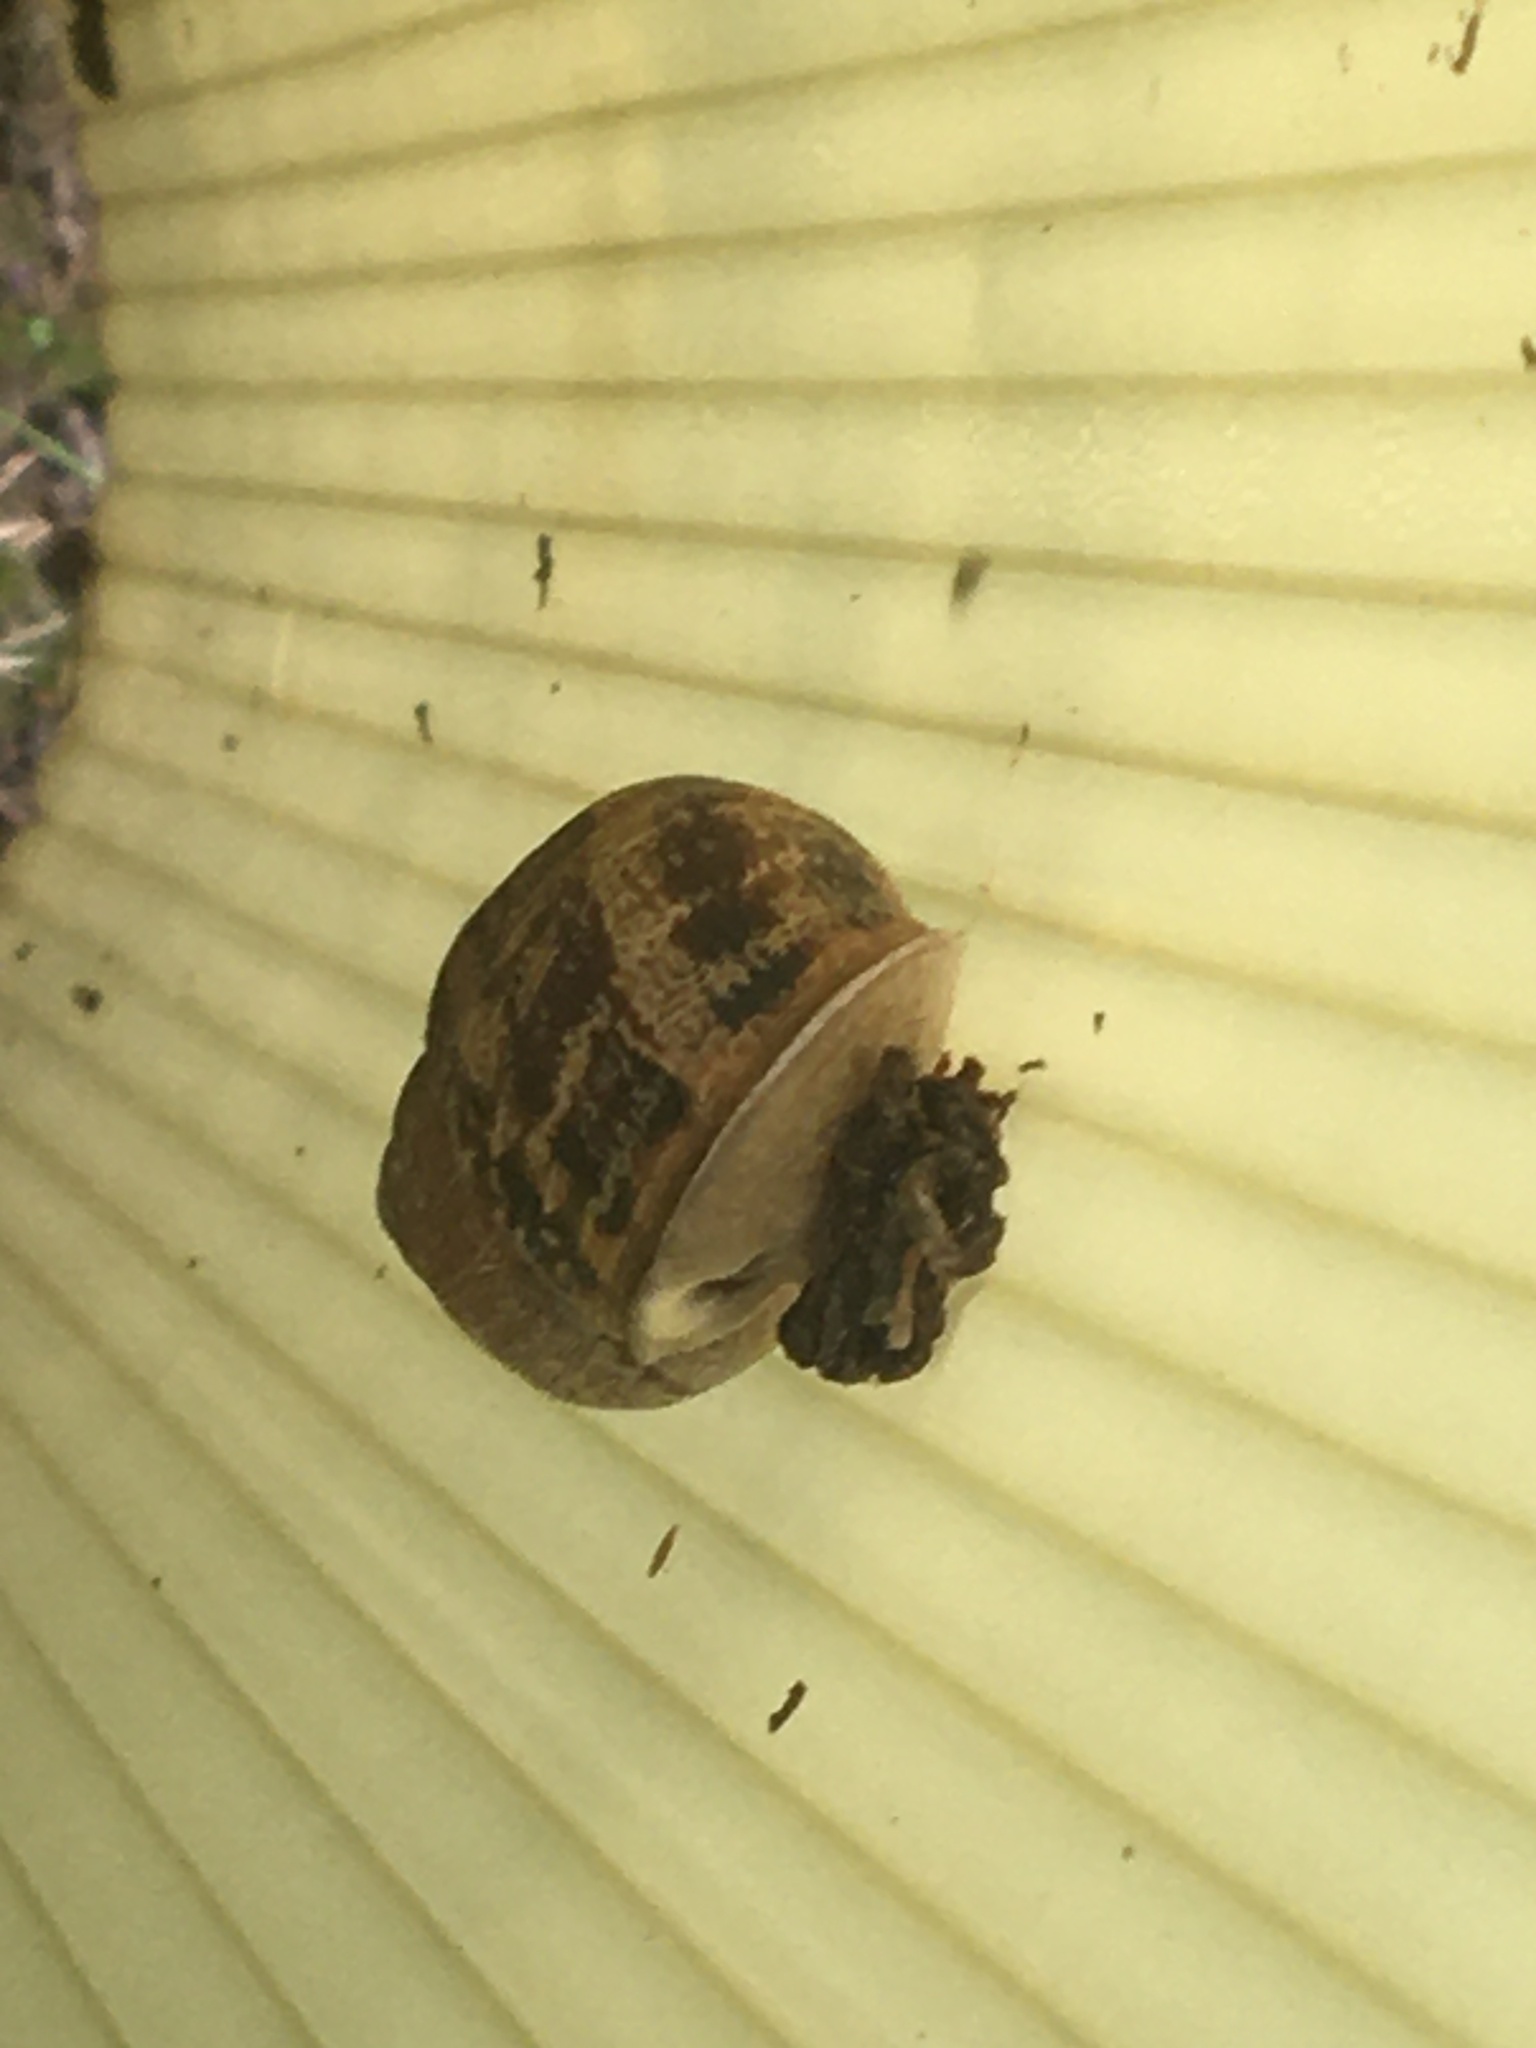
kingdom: Animalia
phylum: Mollusca
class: Gastropoda
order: Stylommatophora
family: Helicidae
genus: Cornu
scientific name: Cornu aspersum
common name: Brown garden snail
